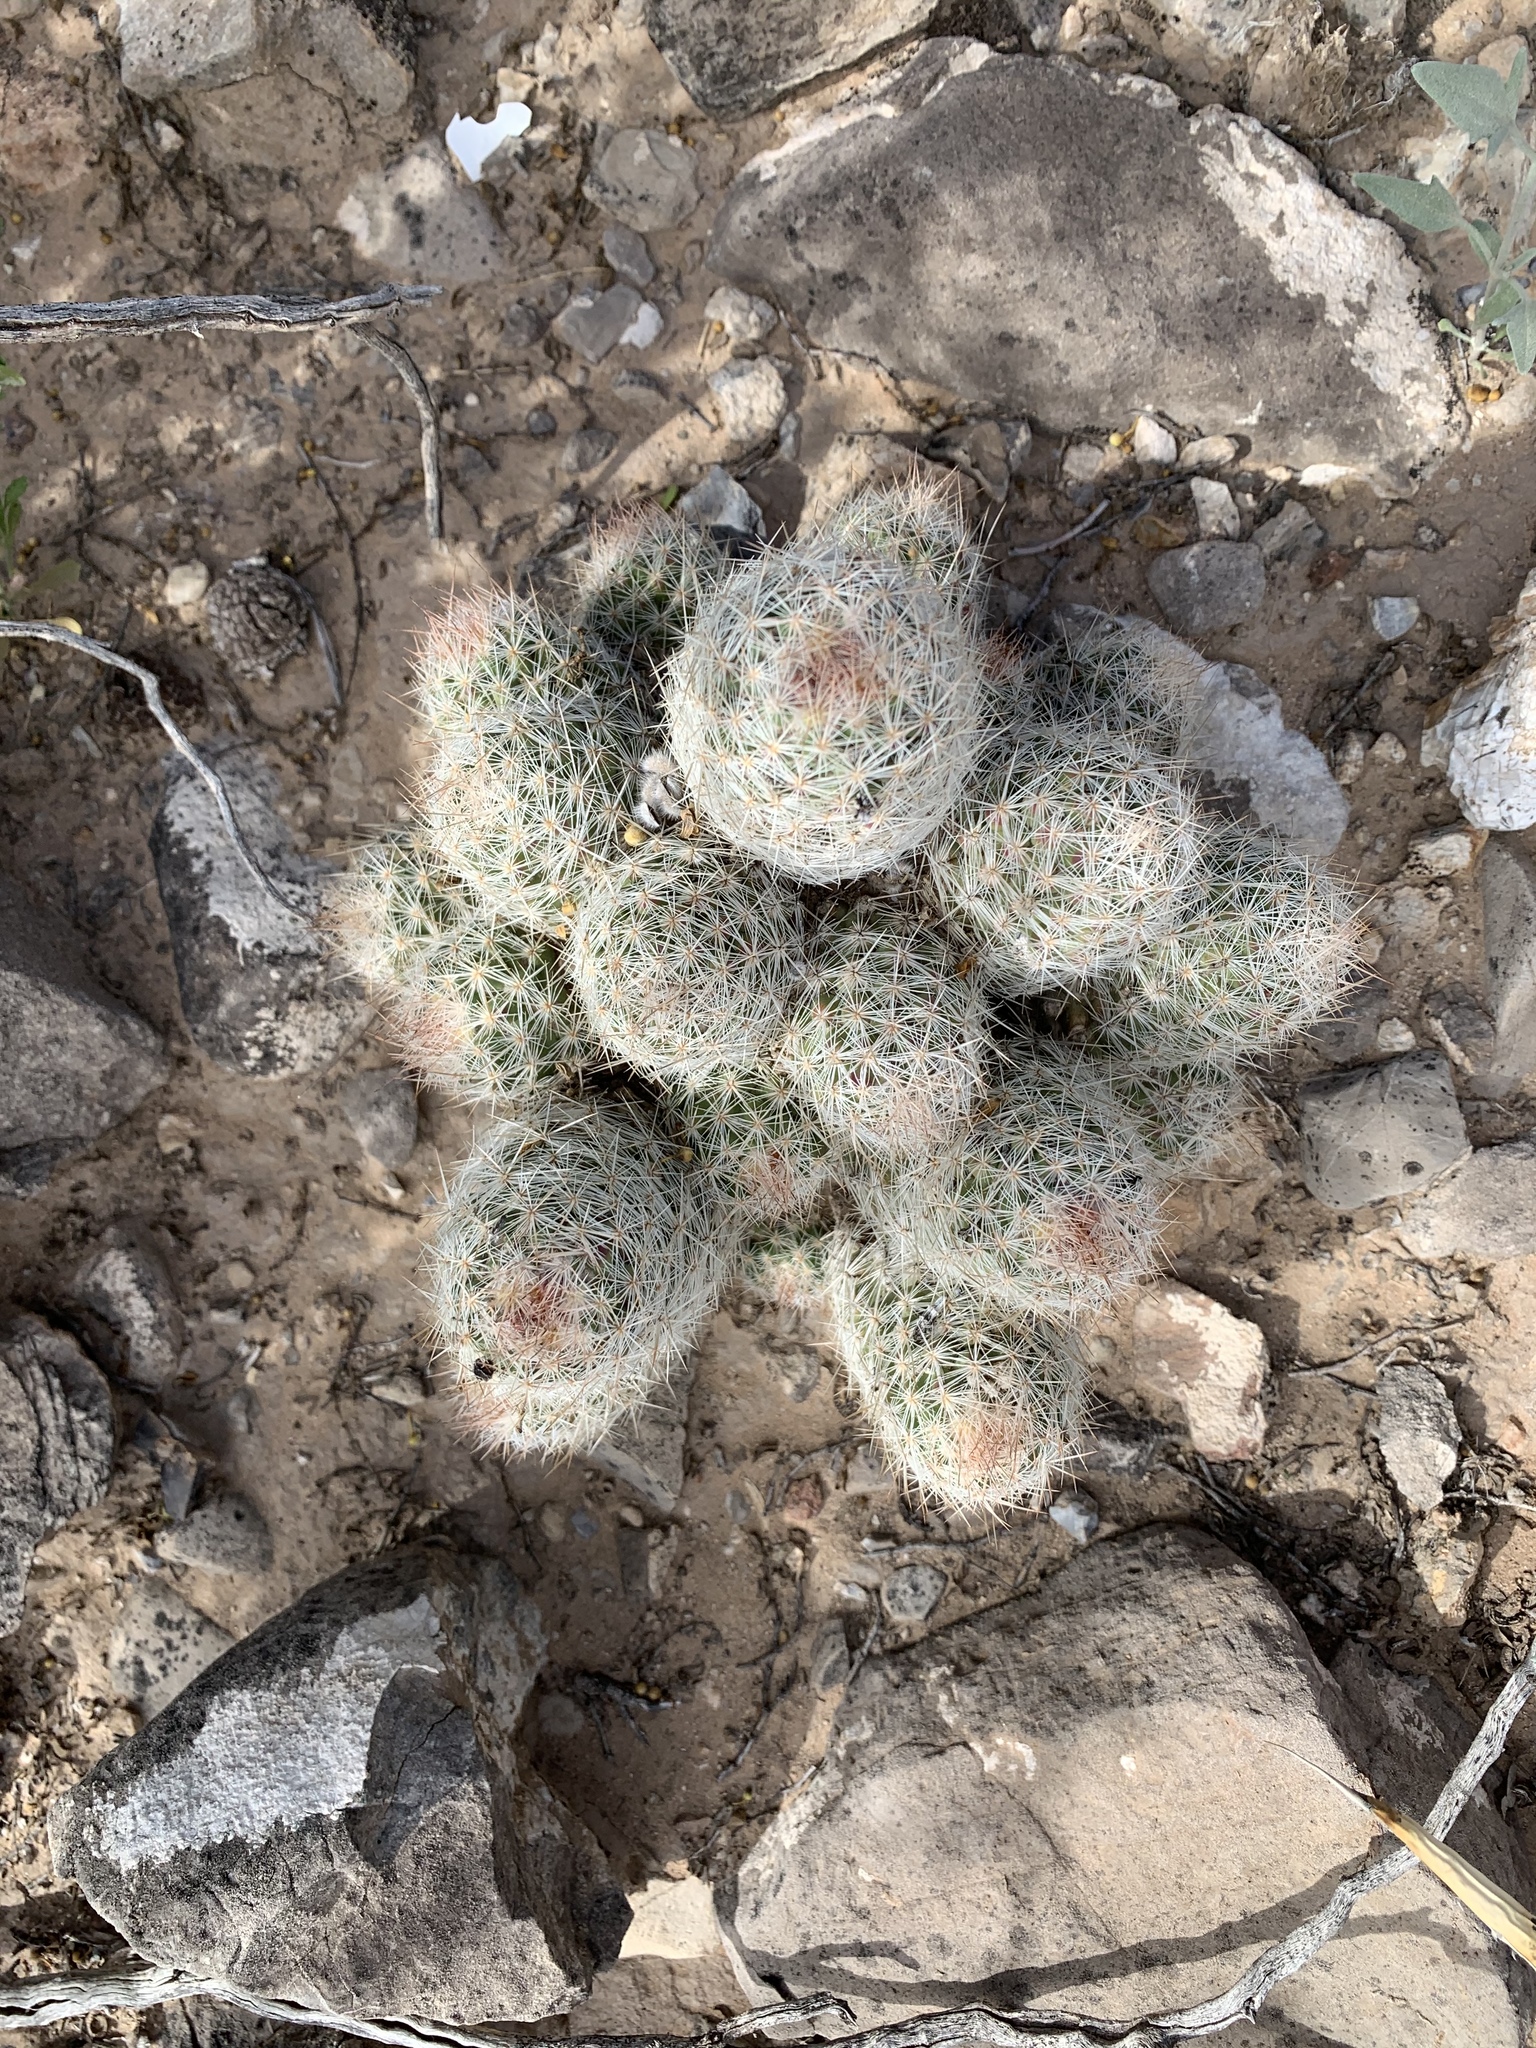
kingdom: Plantae
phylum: Tracheophyta
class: Magnoliopsida
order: Caryophyllales
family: Cactaceae
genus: Pelecyphora
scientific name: Pelecyphora tuberculosa
